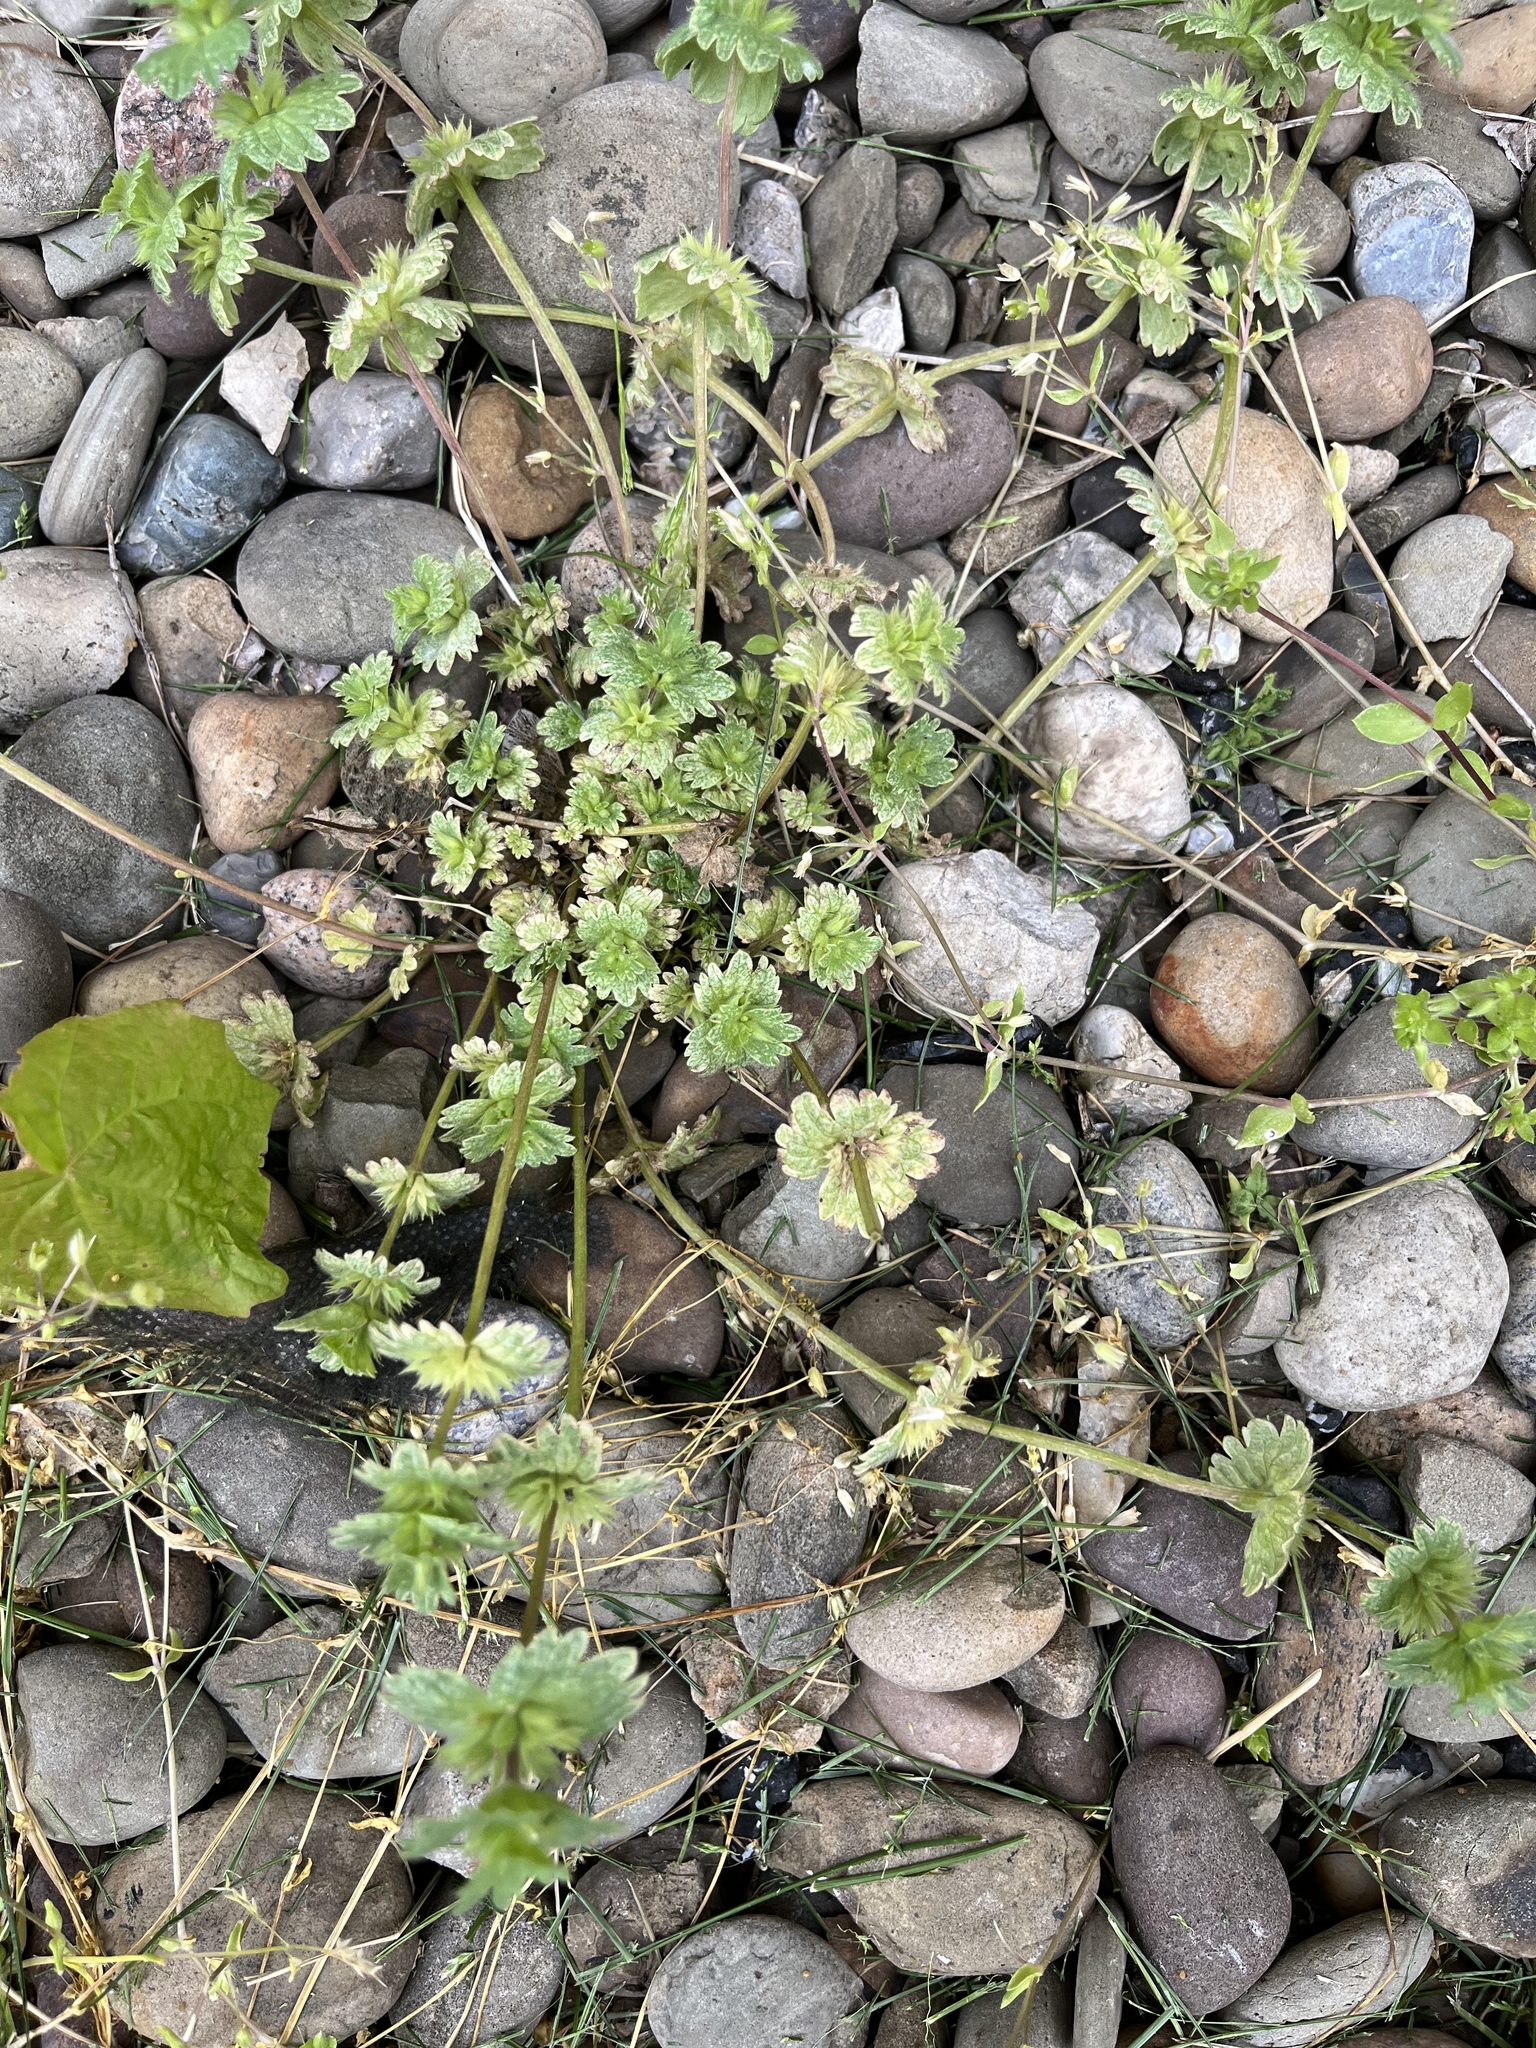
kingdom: Plantae
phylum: Tracheophyta
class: Magnoliopsida
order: Lamiales
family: Lamiaceae
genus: Lamium
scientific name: Lamium amplexicaule
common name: Henbit dead-nettle
